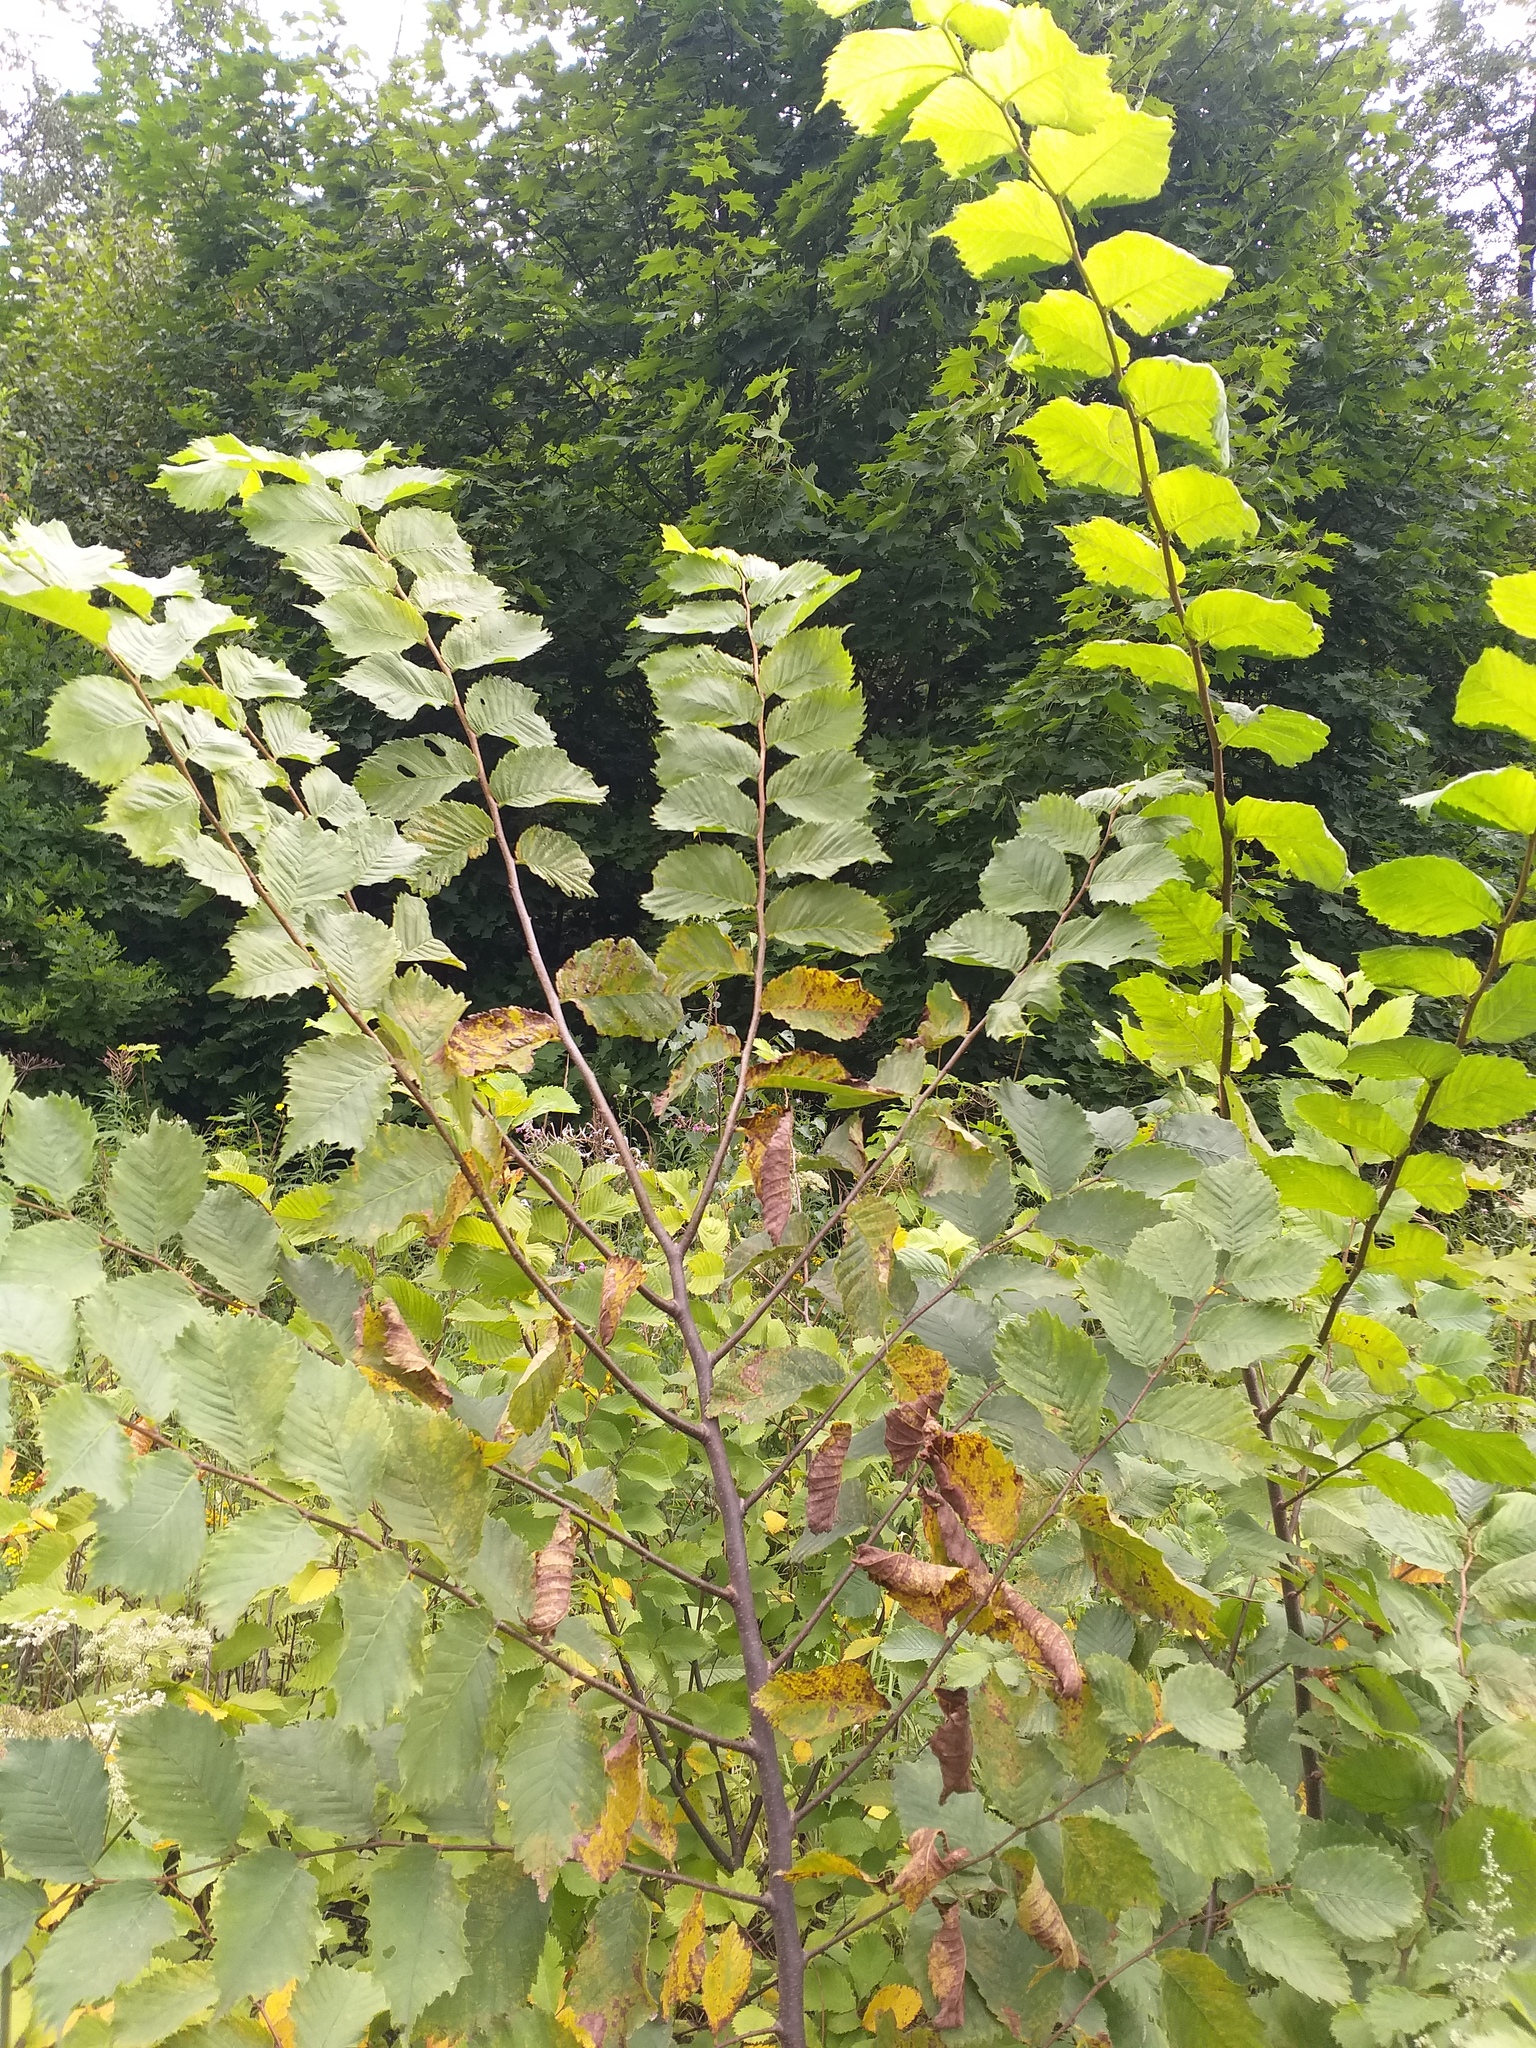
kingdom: Plantae
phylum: Tracheophyta
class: Magnoliopsida
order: Rosales
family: Ulmaceae
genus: Ulmus
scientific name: Ulmus laevis
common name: European white-elm
